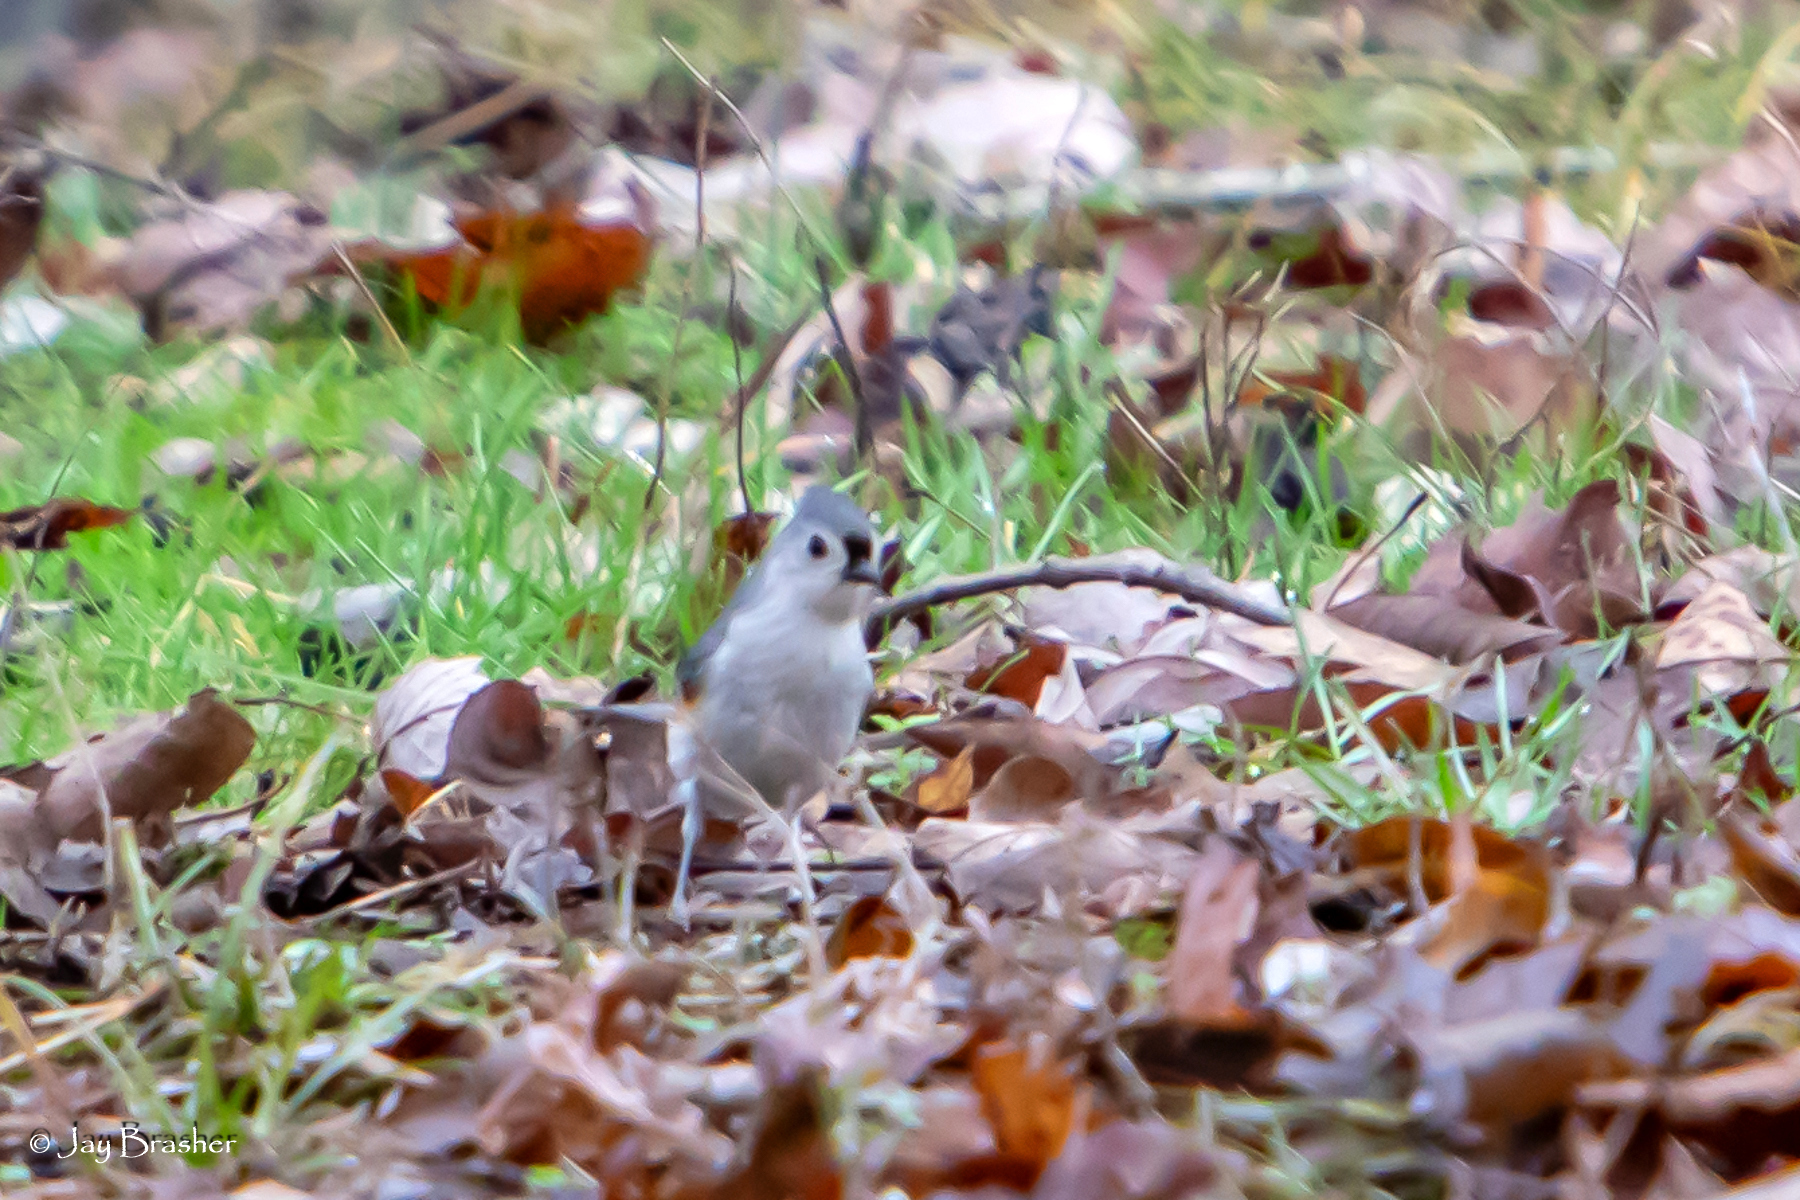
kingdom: Animalia
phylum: Chordata
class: Aves
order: Passeriformes
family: Paridae
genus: Baeolophus
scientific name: Baeolophus bicolor
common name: Tufted titmouse
